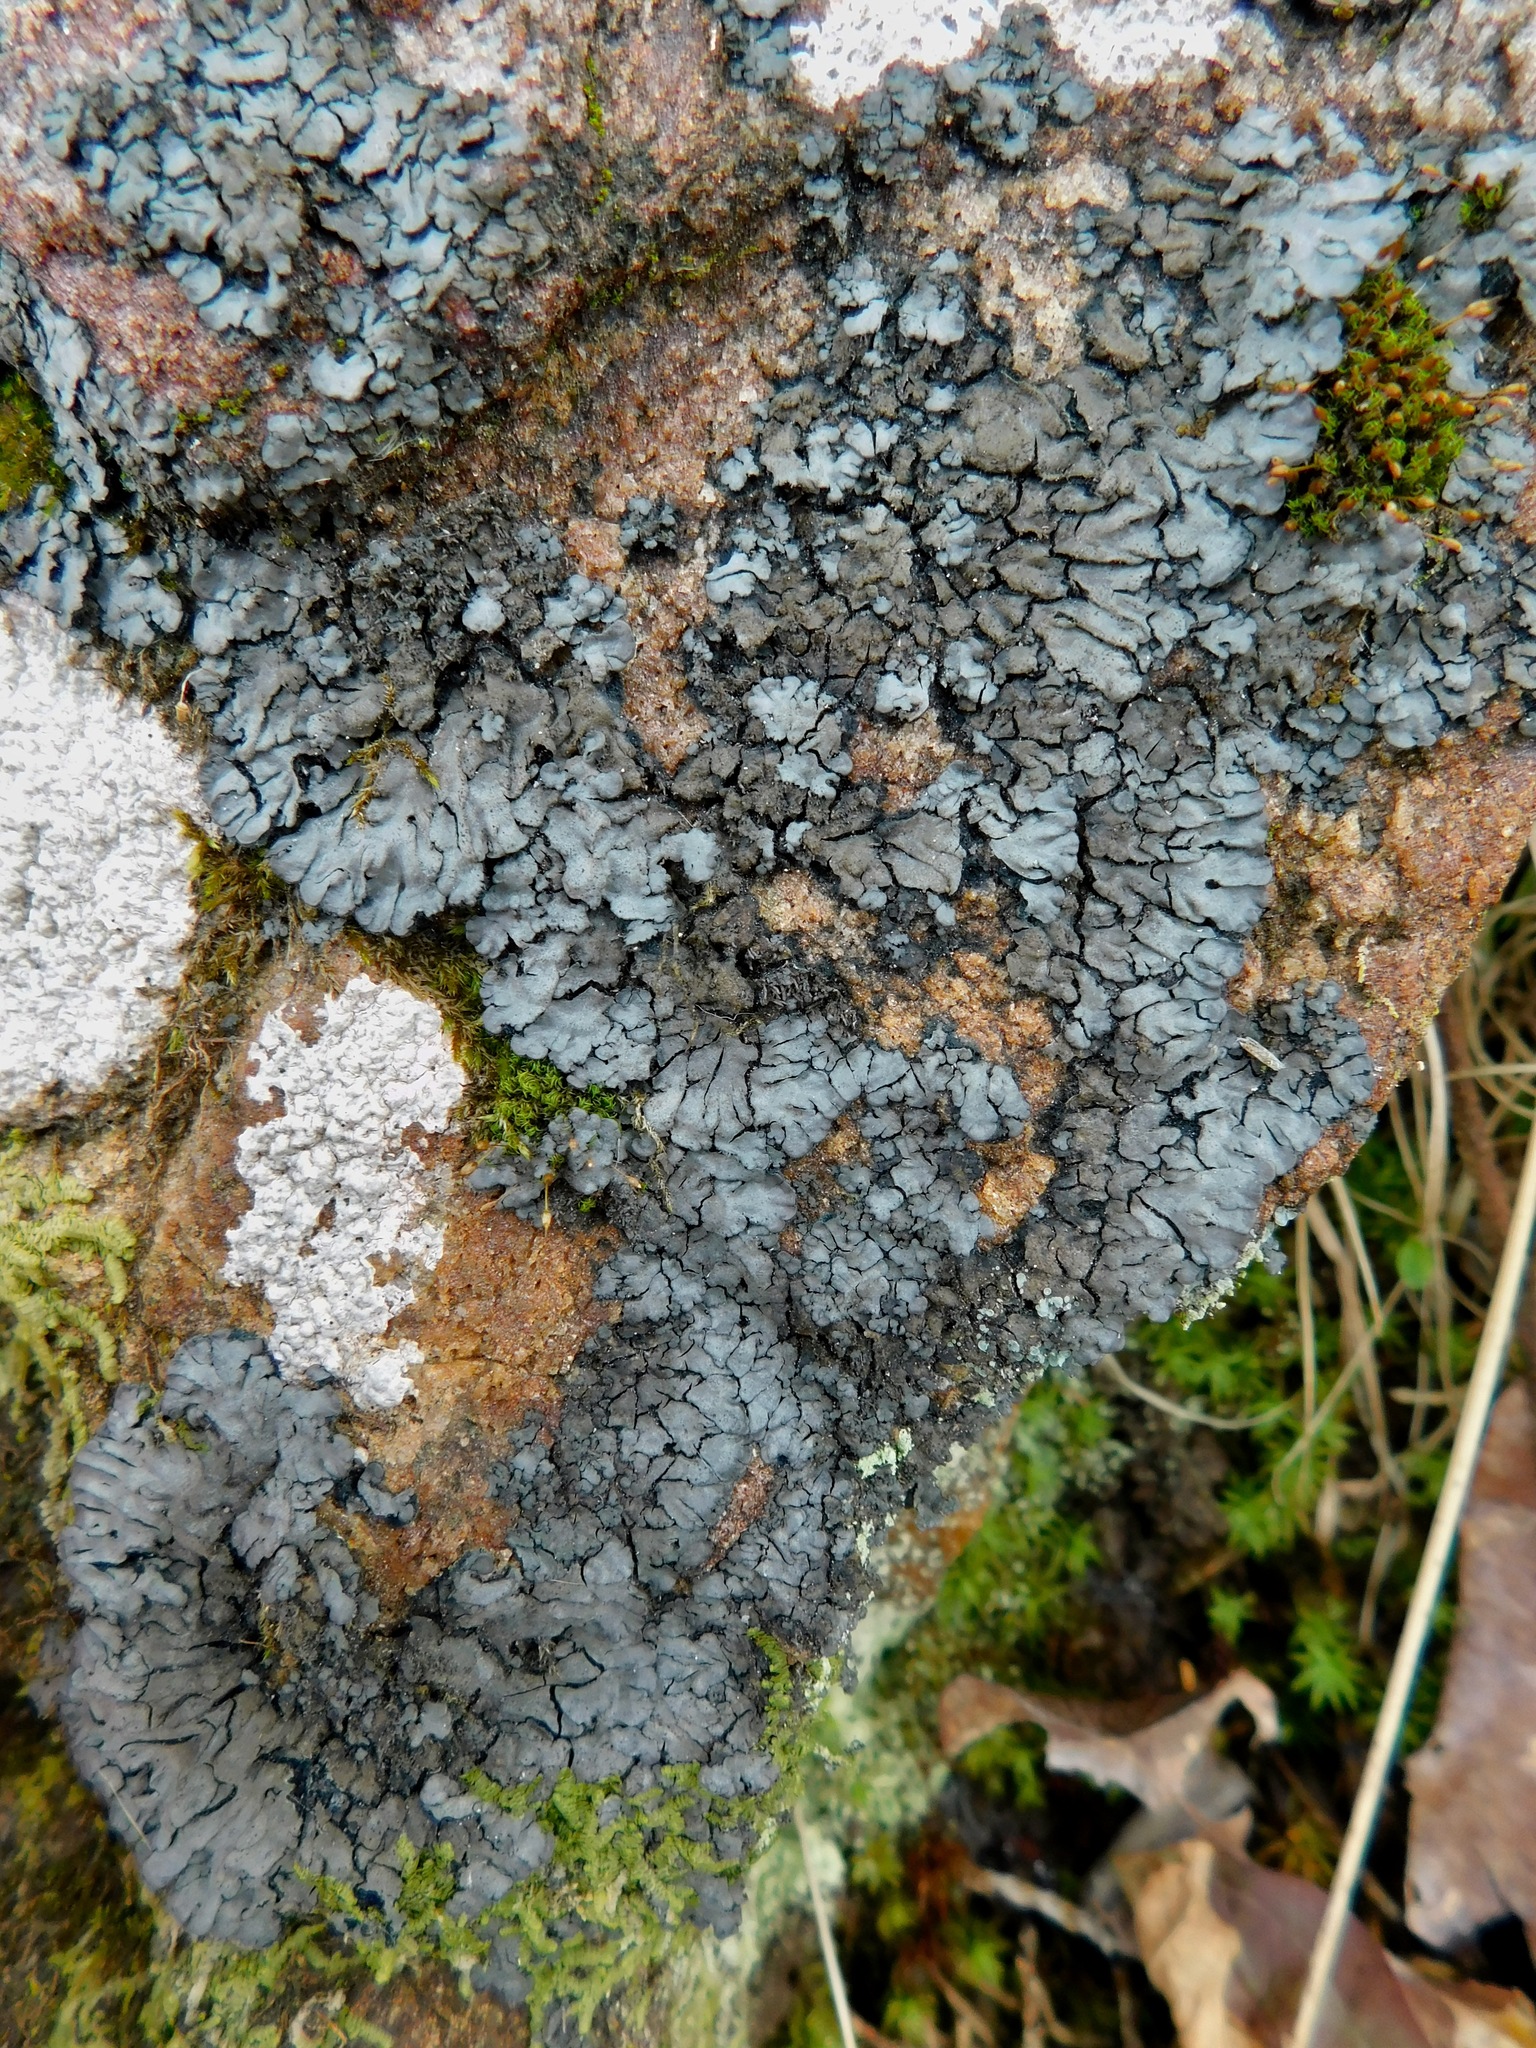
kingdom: Fungi
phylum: Ascomycota
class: Lecanoromycetes
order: Peltigerales
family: Pannariaceae
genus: Pannaria
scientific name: Pannaria conoplea
